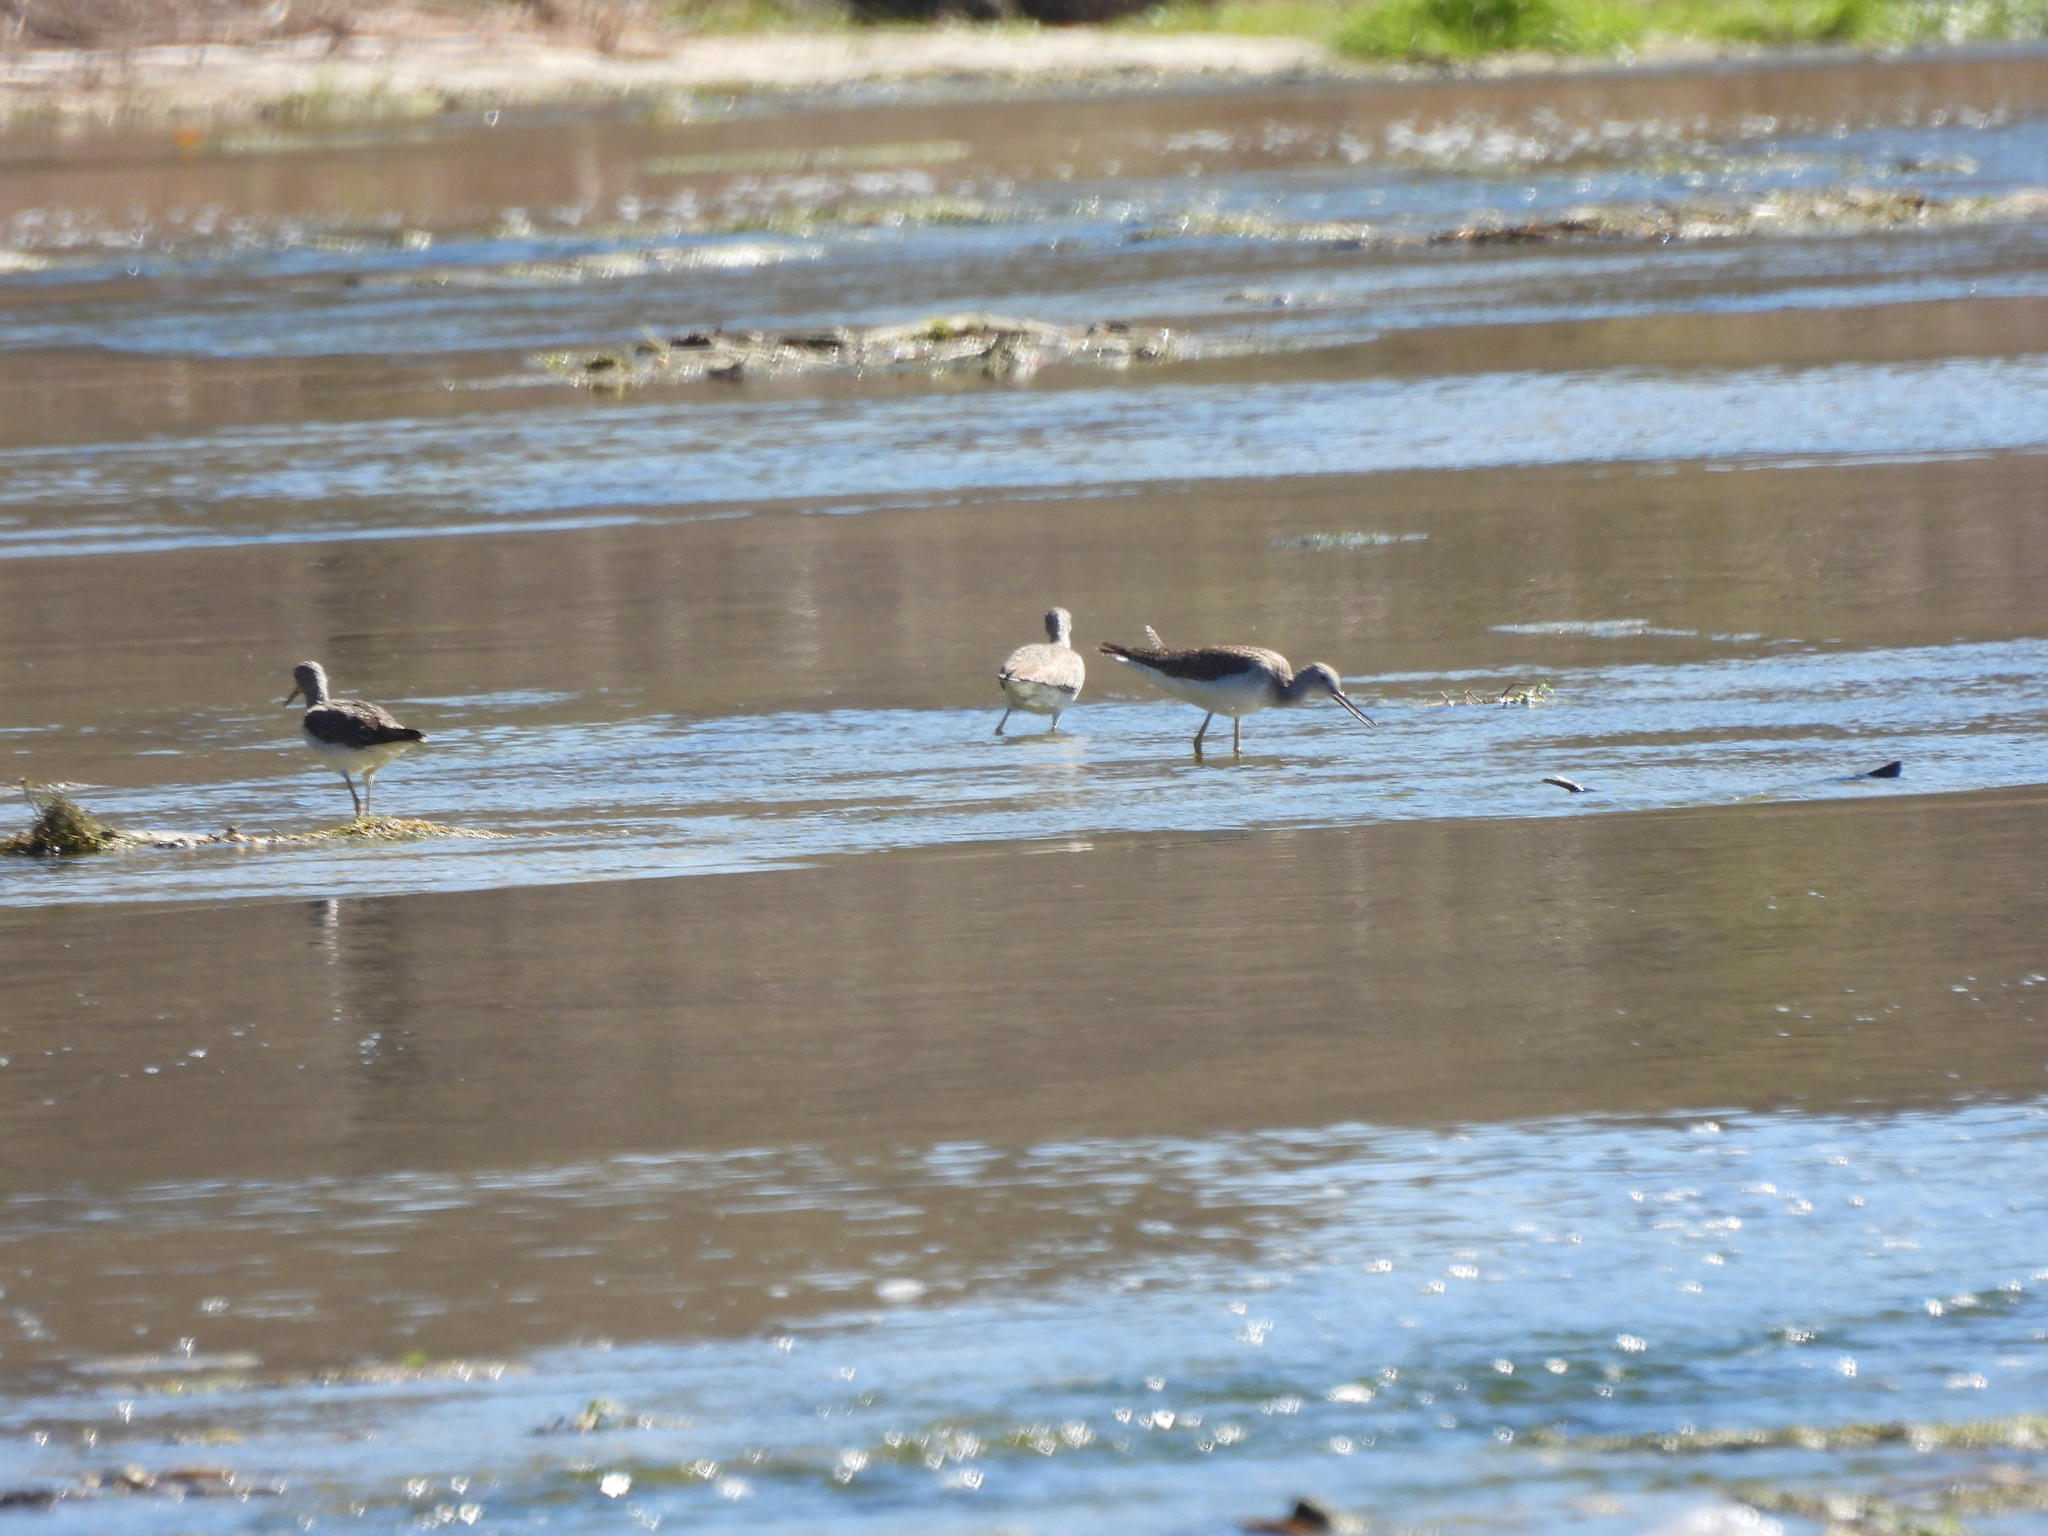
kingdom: Animalia
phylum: Chordata
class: Aves
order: Charadriiformes
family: Scolopacidae
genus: Tringa
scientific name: Tringa melanoleuca
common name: Greater yellowlegs
